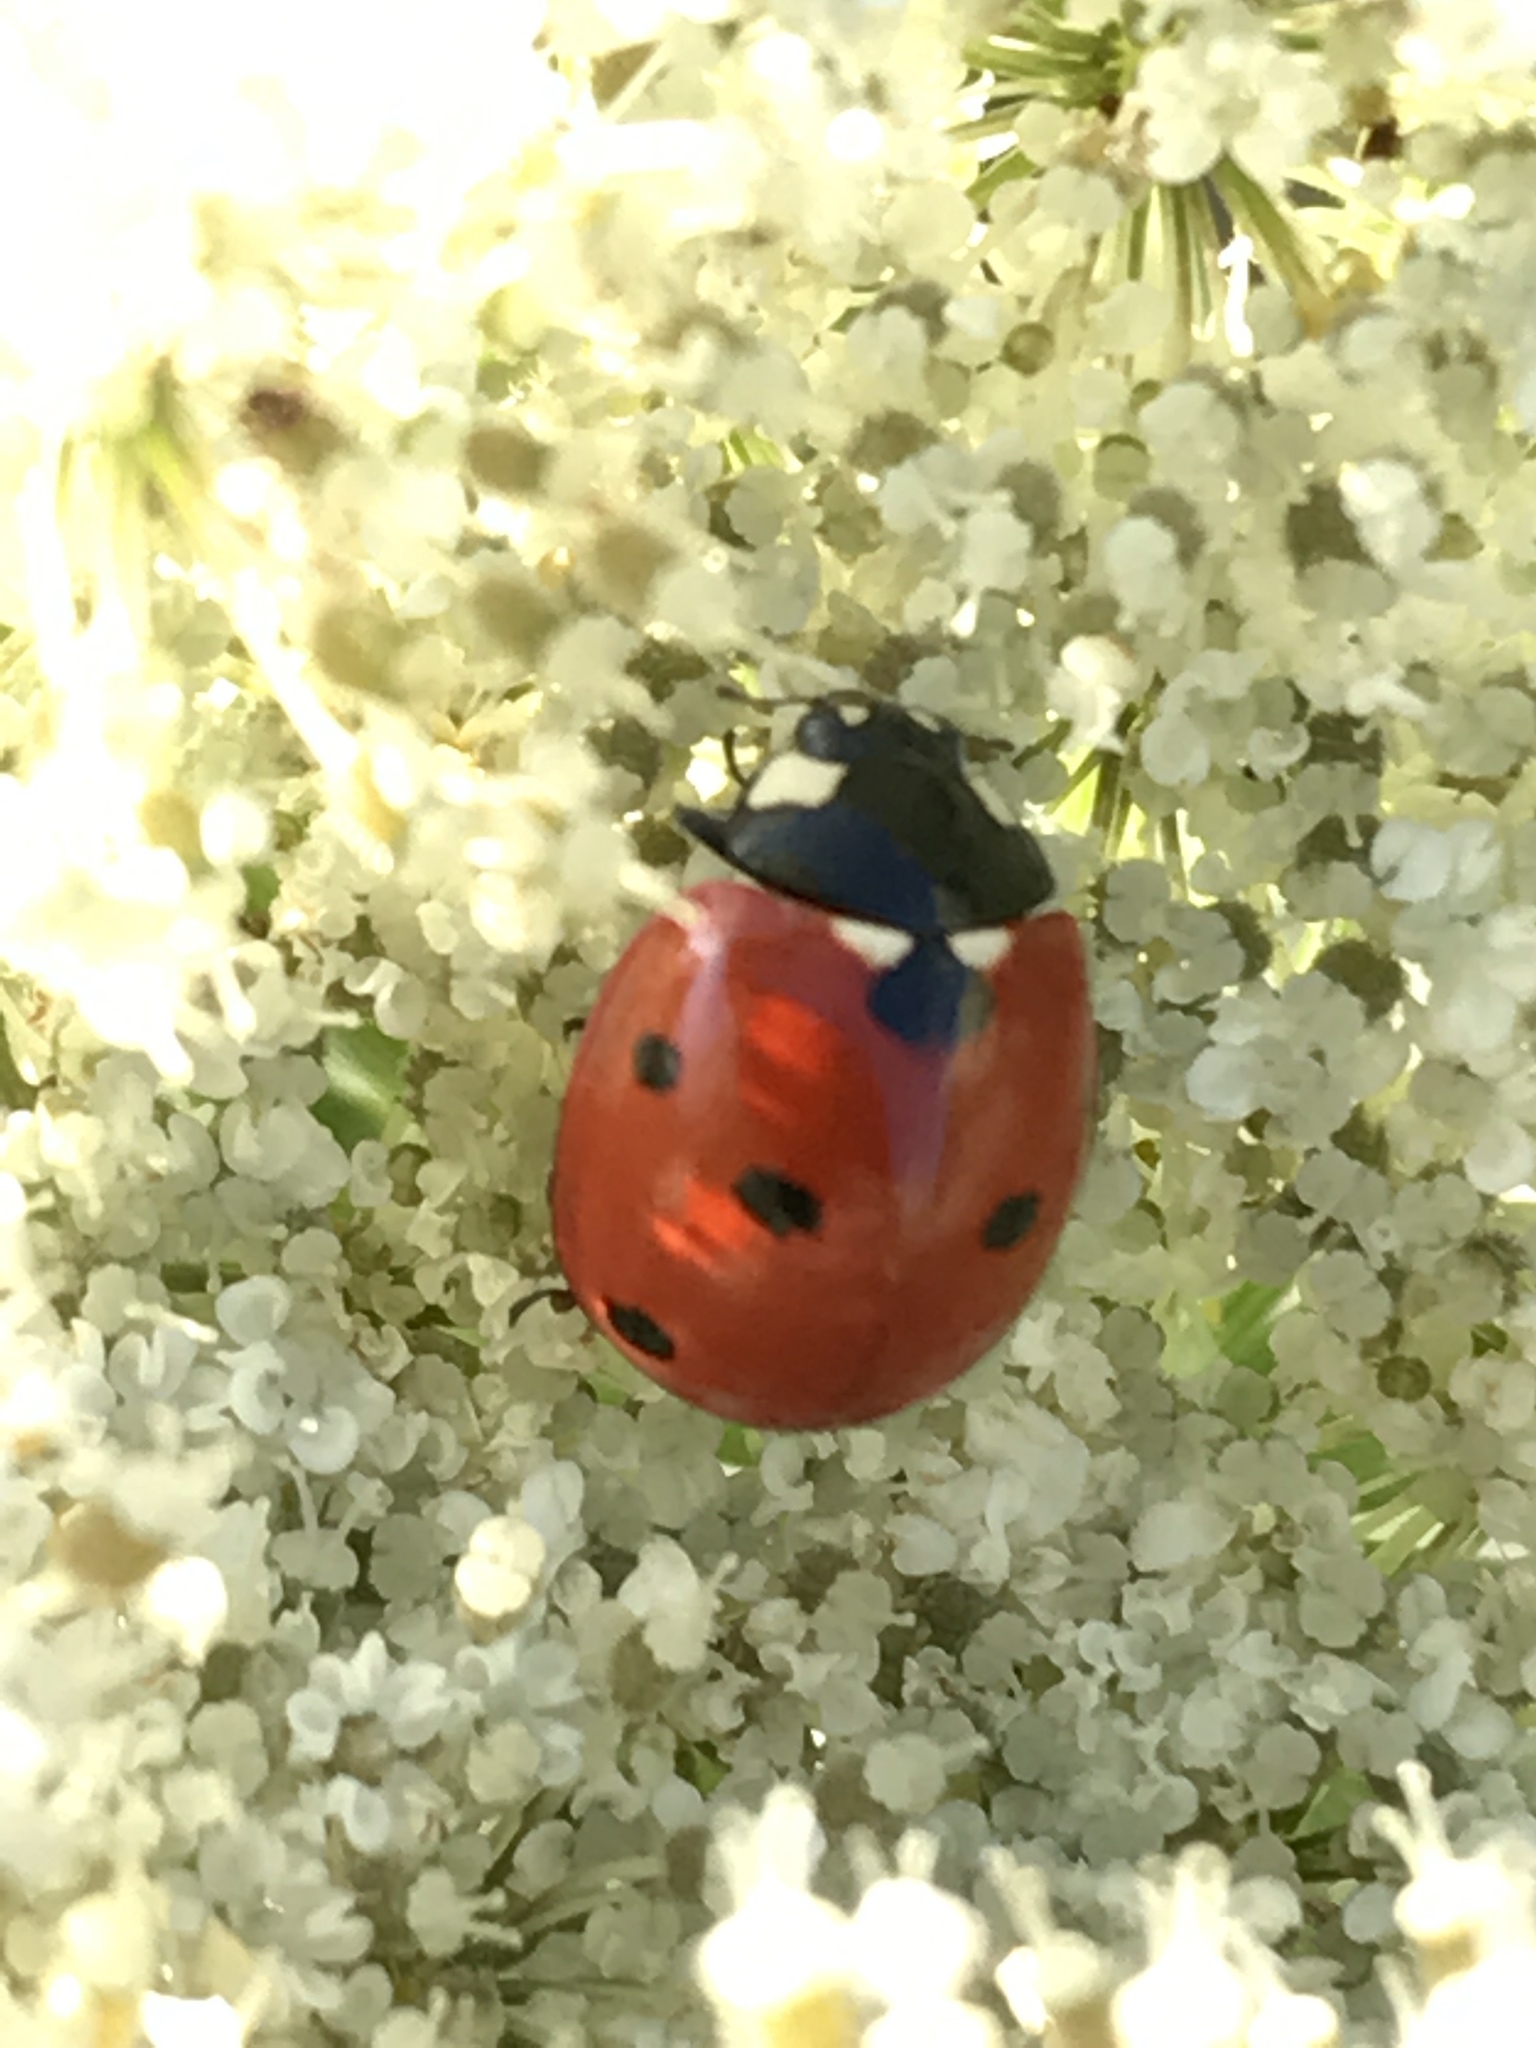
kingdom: Animalia
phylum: Arthropoda
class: Insecta
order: Coleoptera
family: Coccinellidae
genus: Coccinella
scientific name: Coccinella septempunctata
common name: Sevenspotted lady beetle
